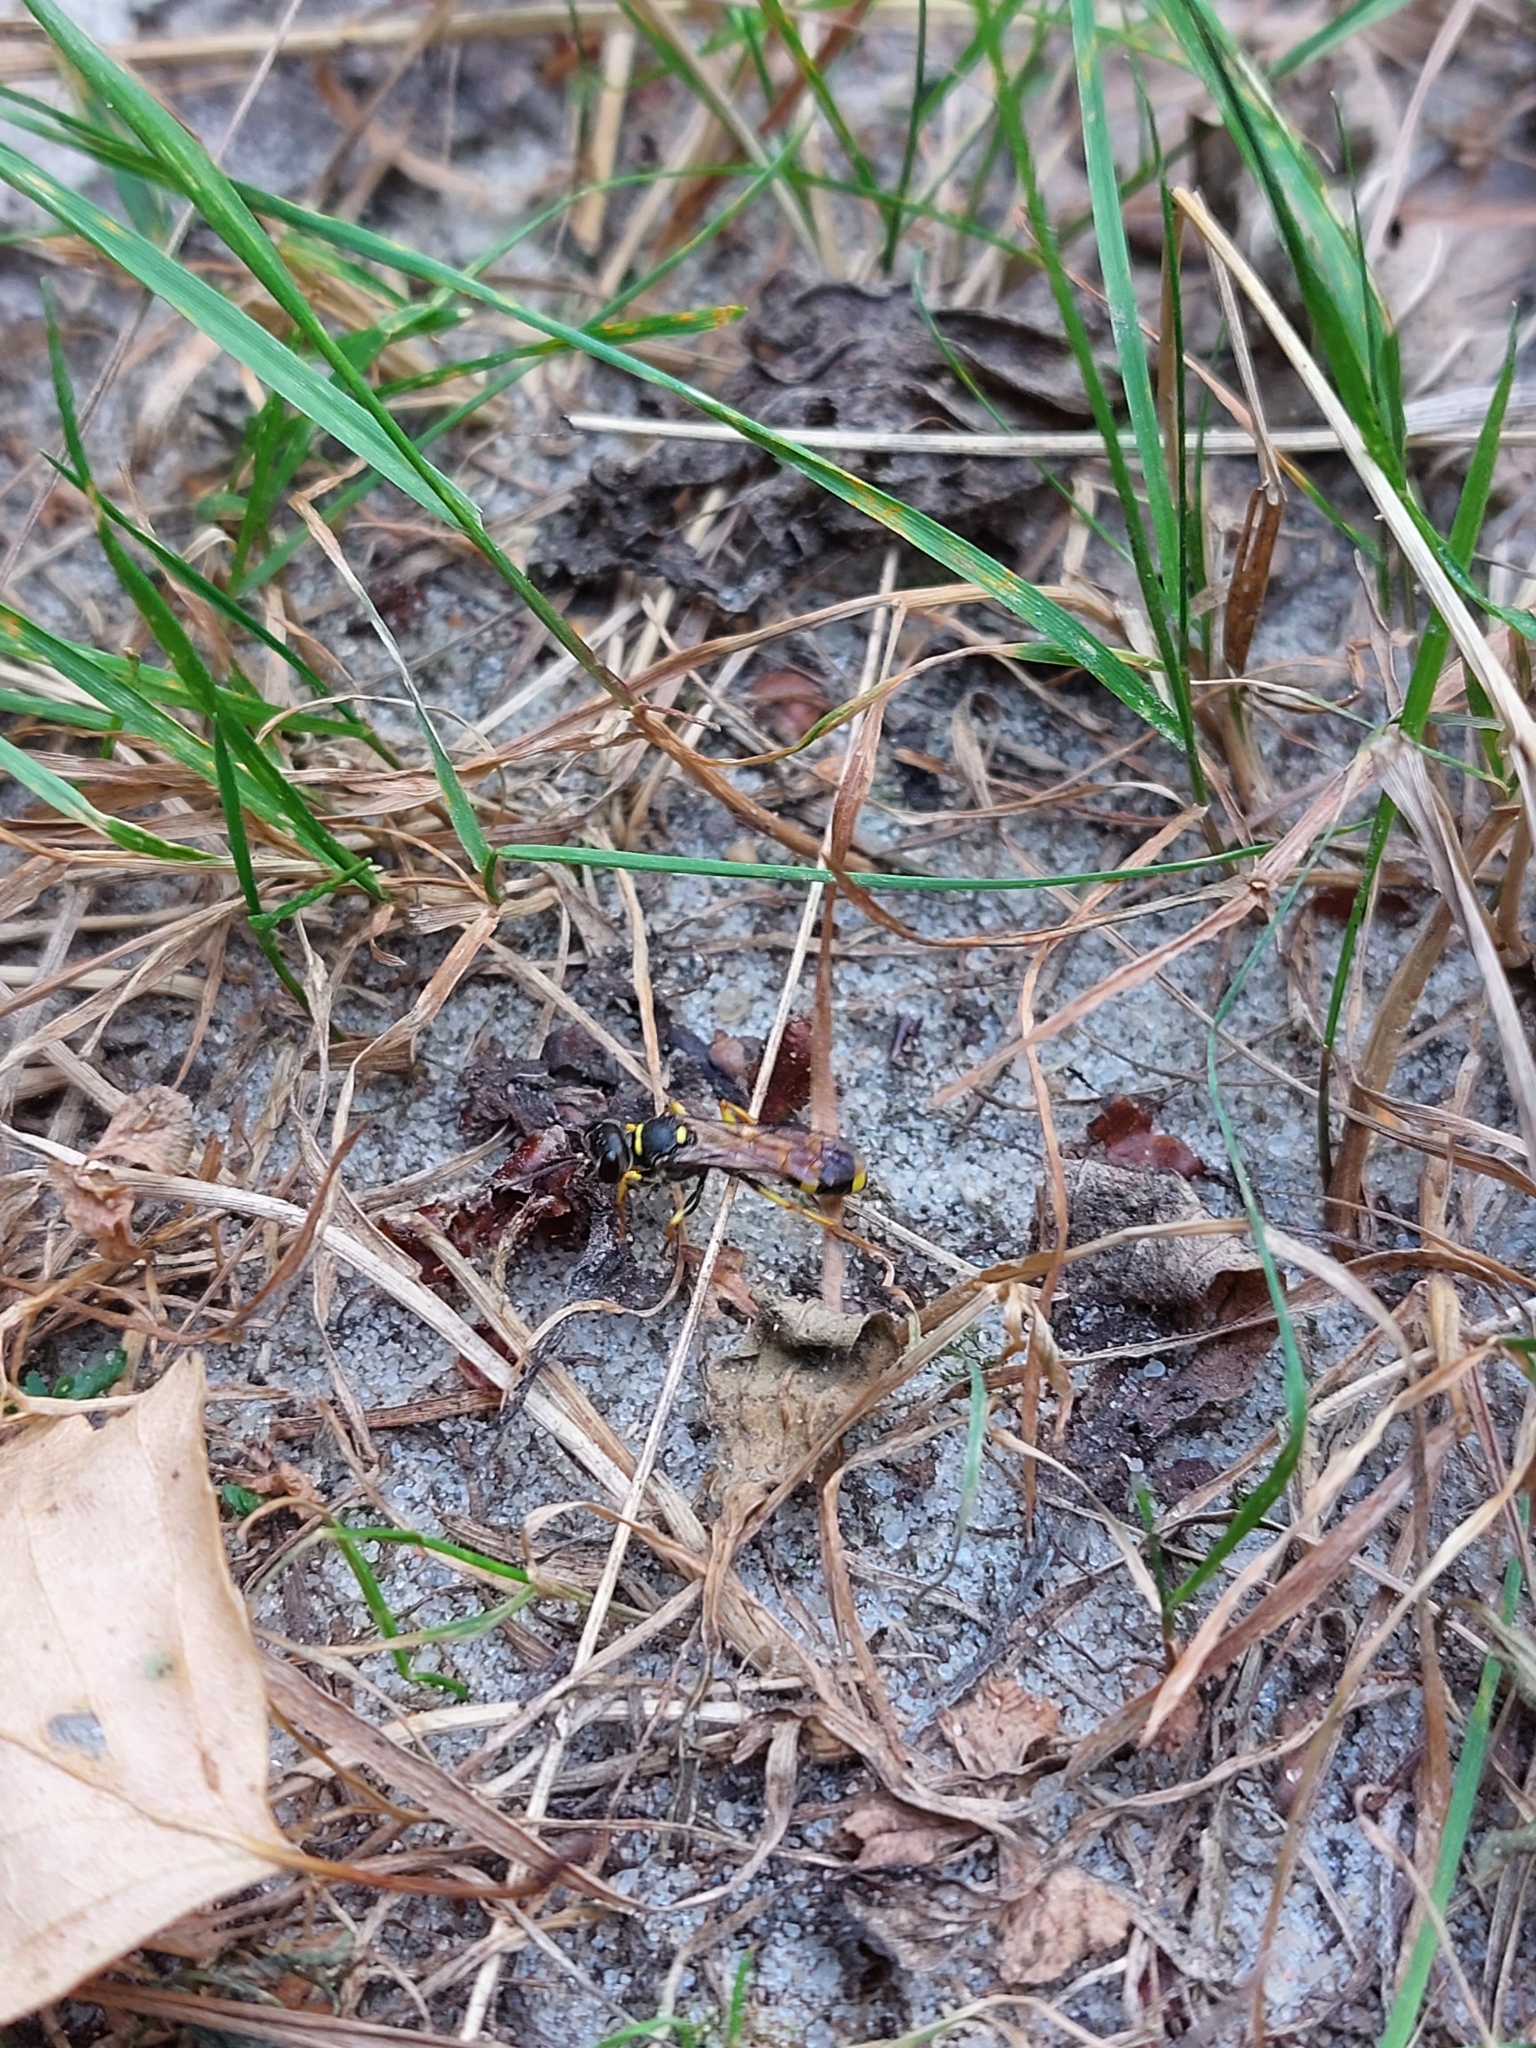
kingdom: Animalia
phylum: Arthropoda
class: Insecta
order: Hymenoptera
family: Crabronidae
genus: Mellinus
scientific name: Mellinus arvensis
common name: Field digger wasp
